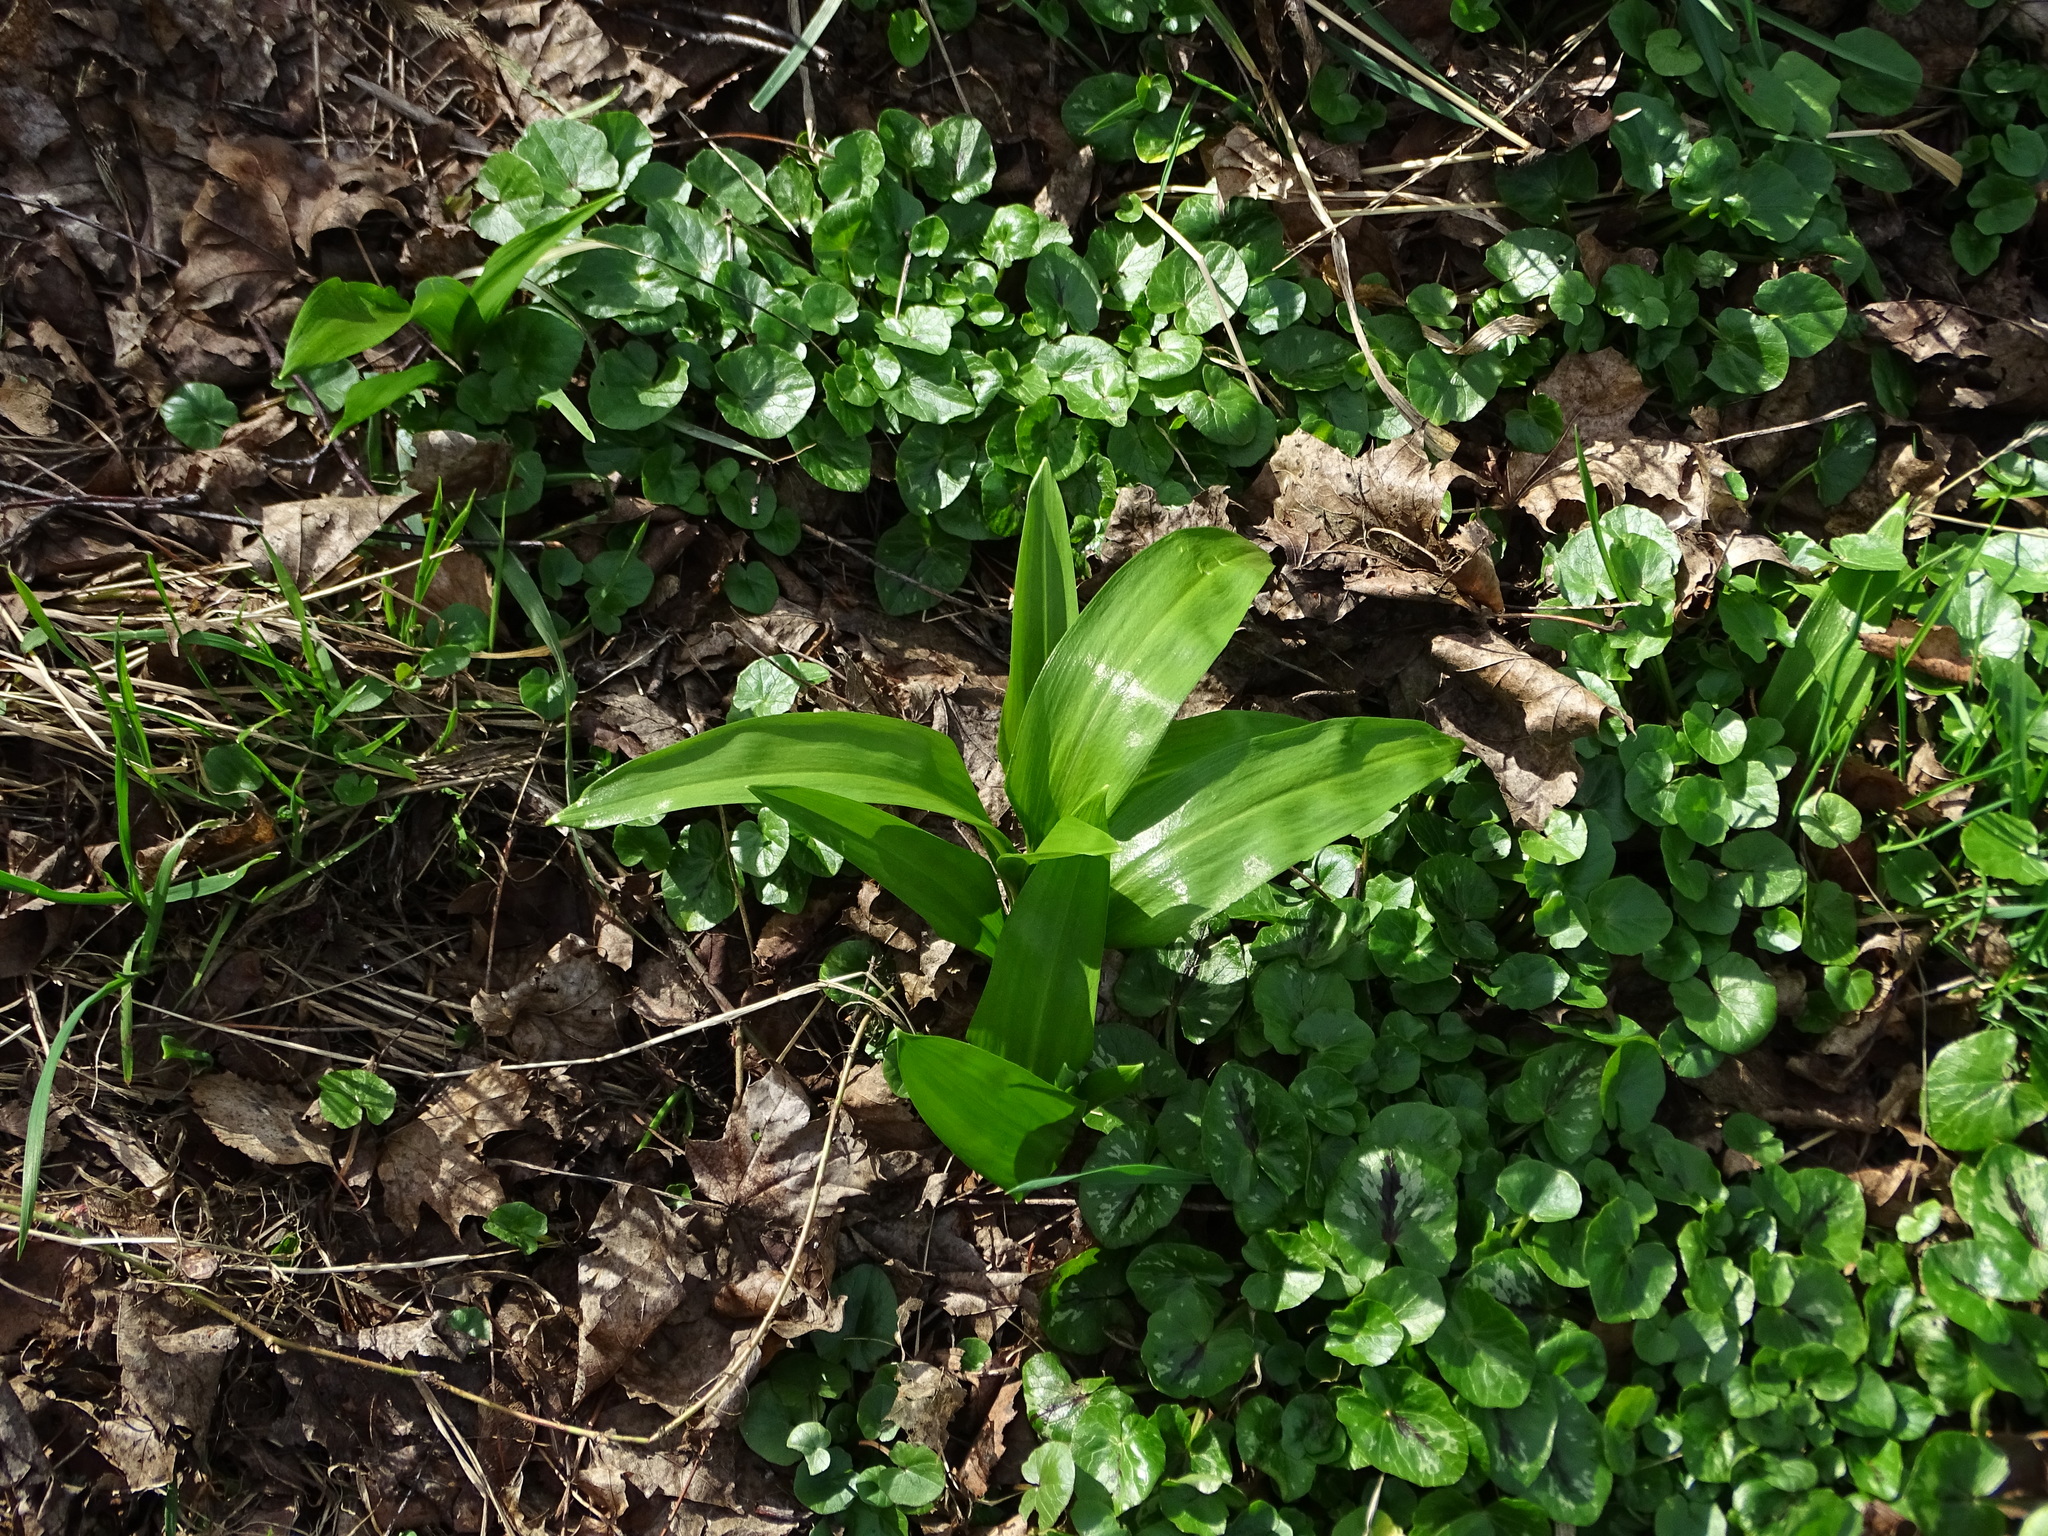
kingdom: Plantae
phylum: Tracheophyta
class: Liliopsida
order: Asparagales
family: Amaryllidaceae
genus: Allium
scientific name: Allium ursinum
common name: Ramsons
